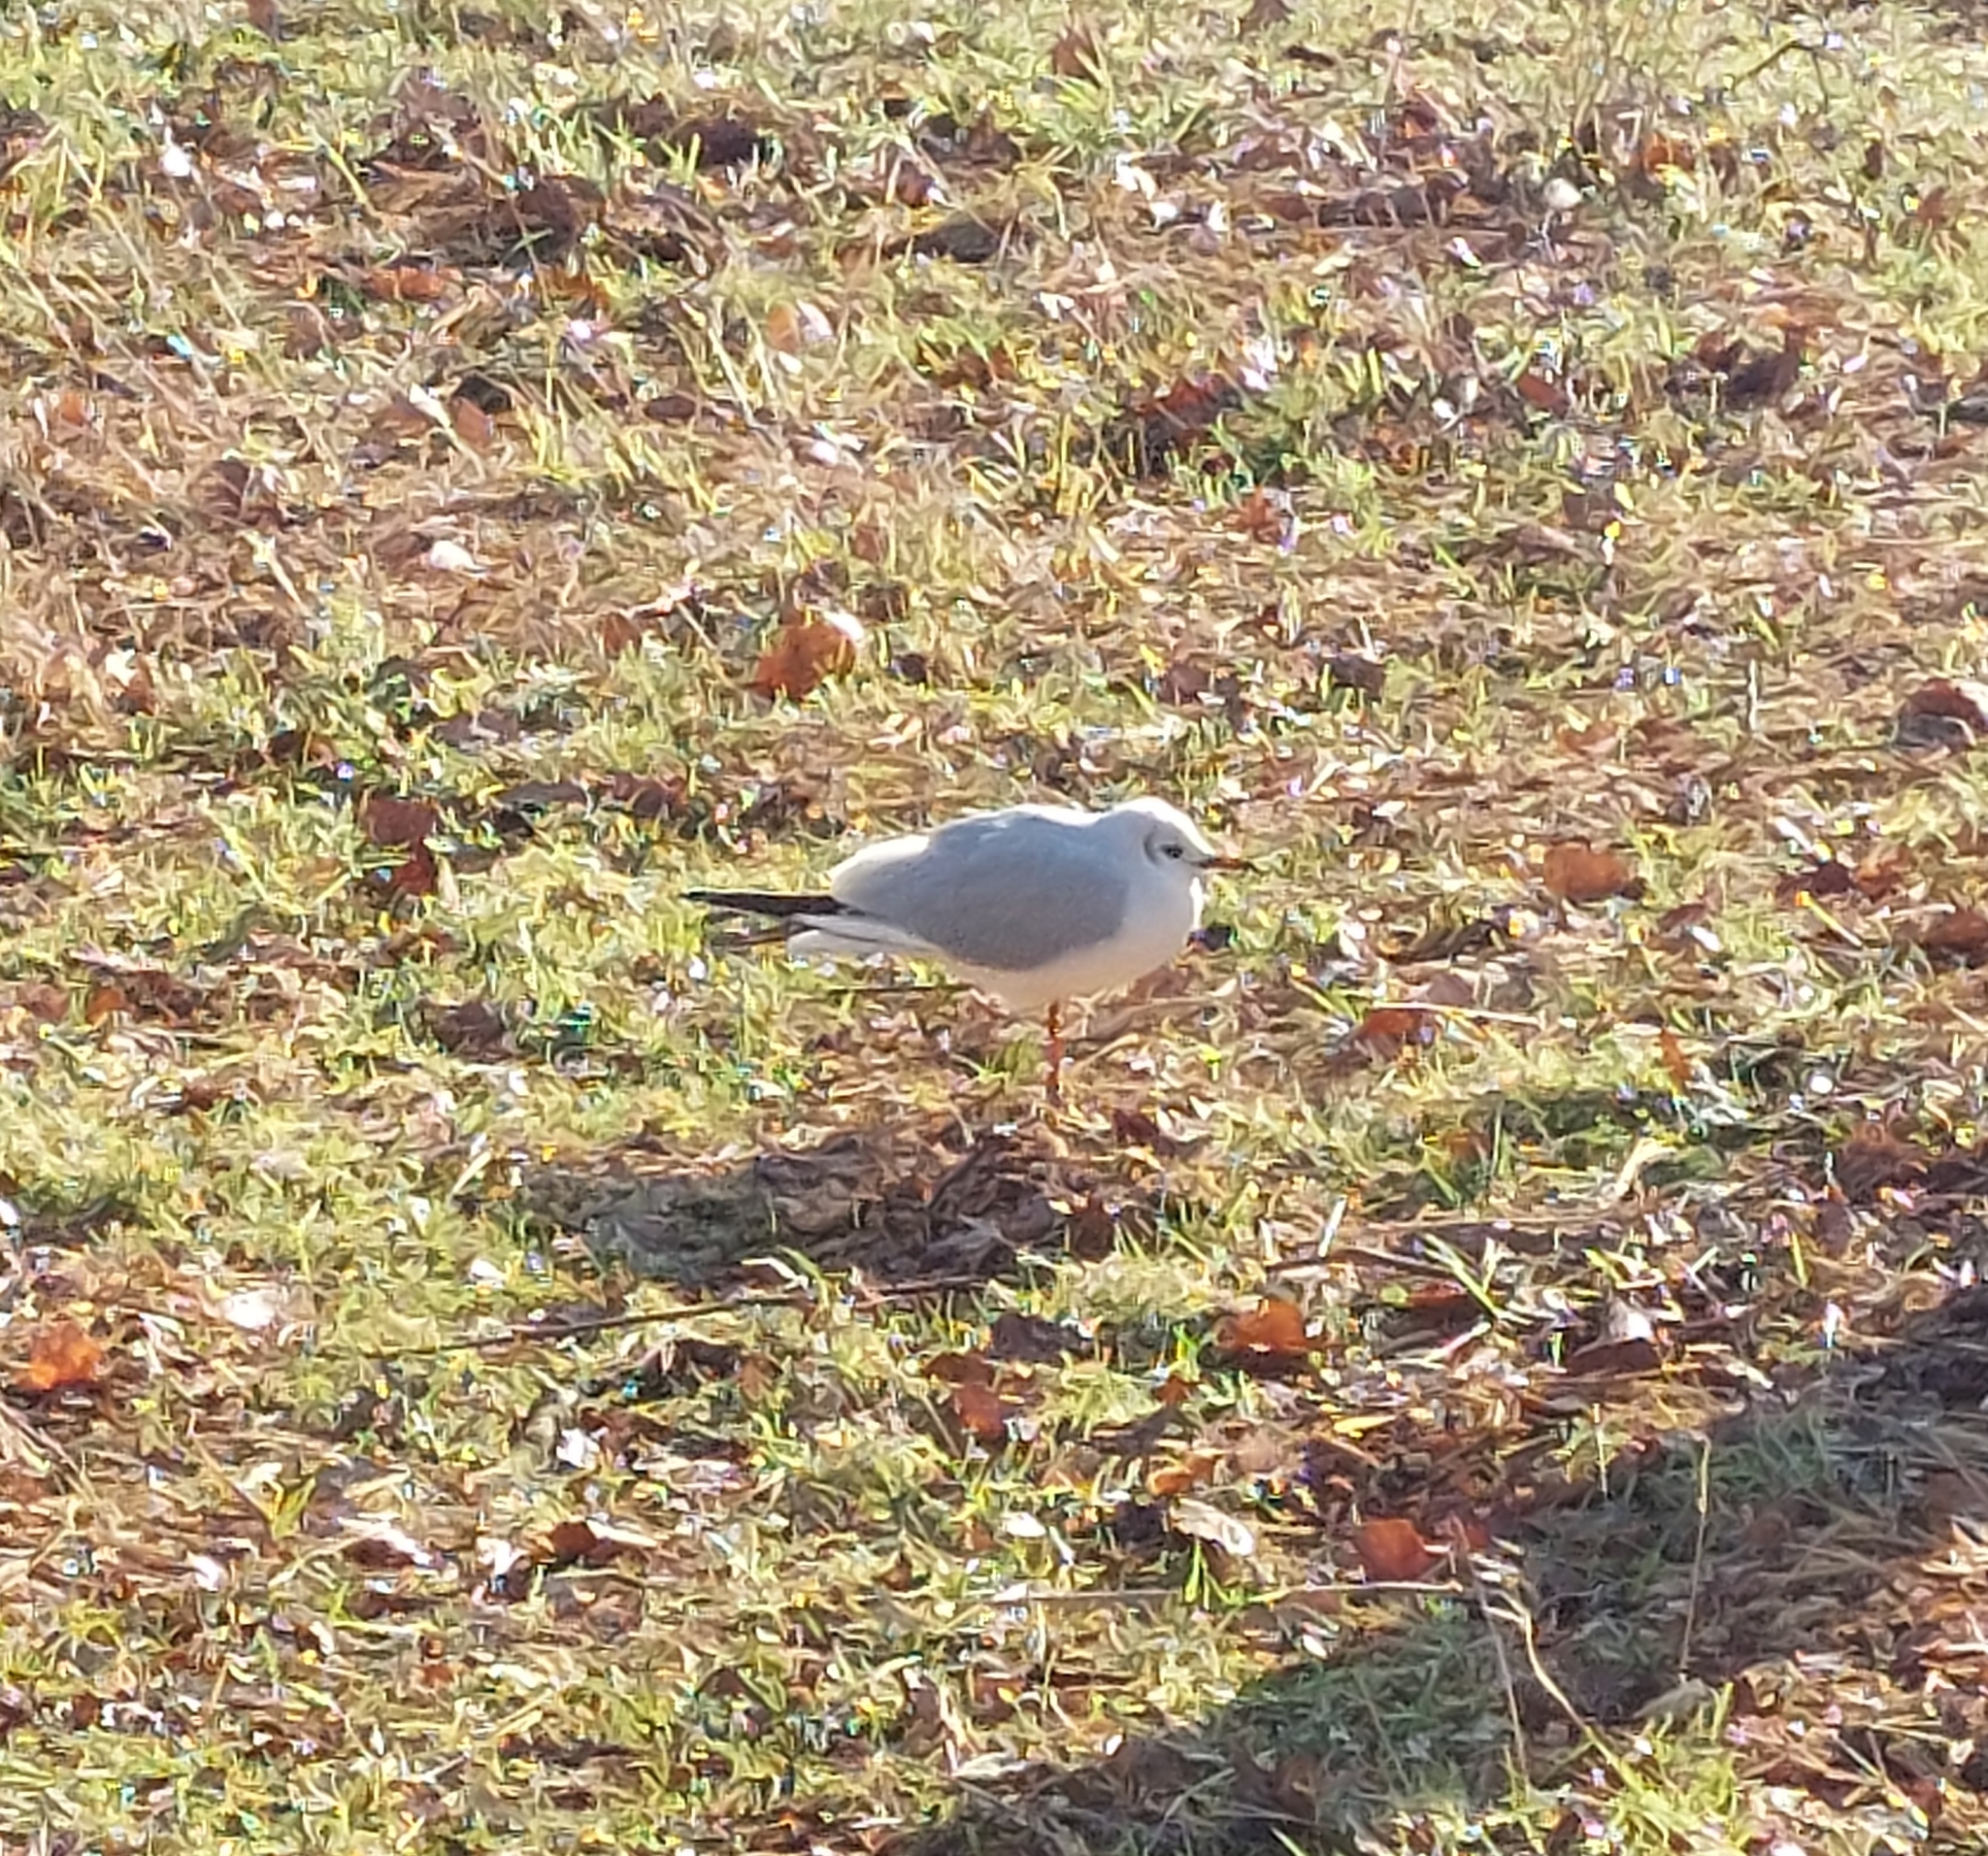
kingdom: Animalia
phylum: Chordata
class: Aves
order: Charadriiformes
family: Laridae
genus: Chroicocephalus
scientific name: Chroicocephalus ridibundus
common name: Black-headed gull
